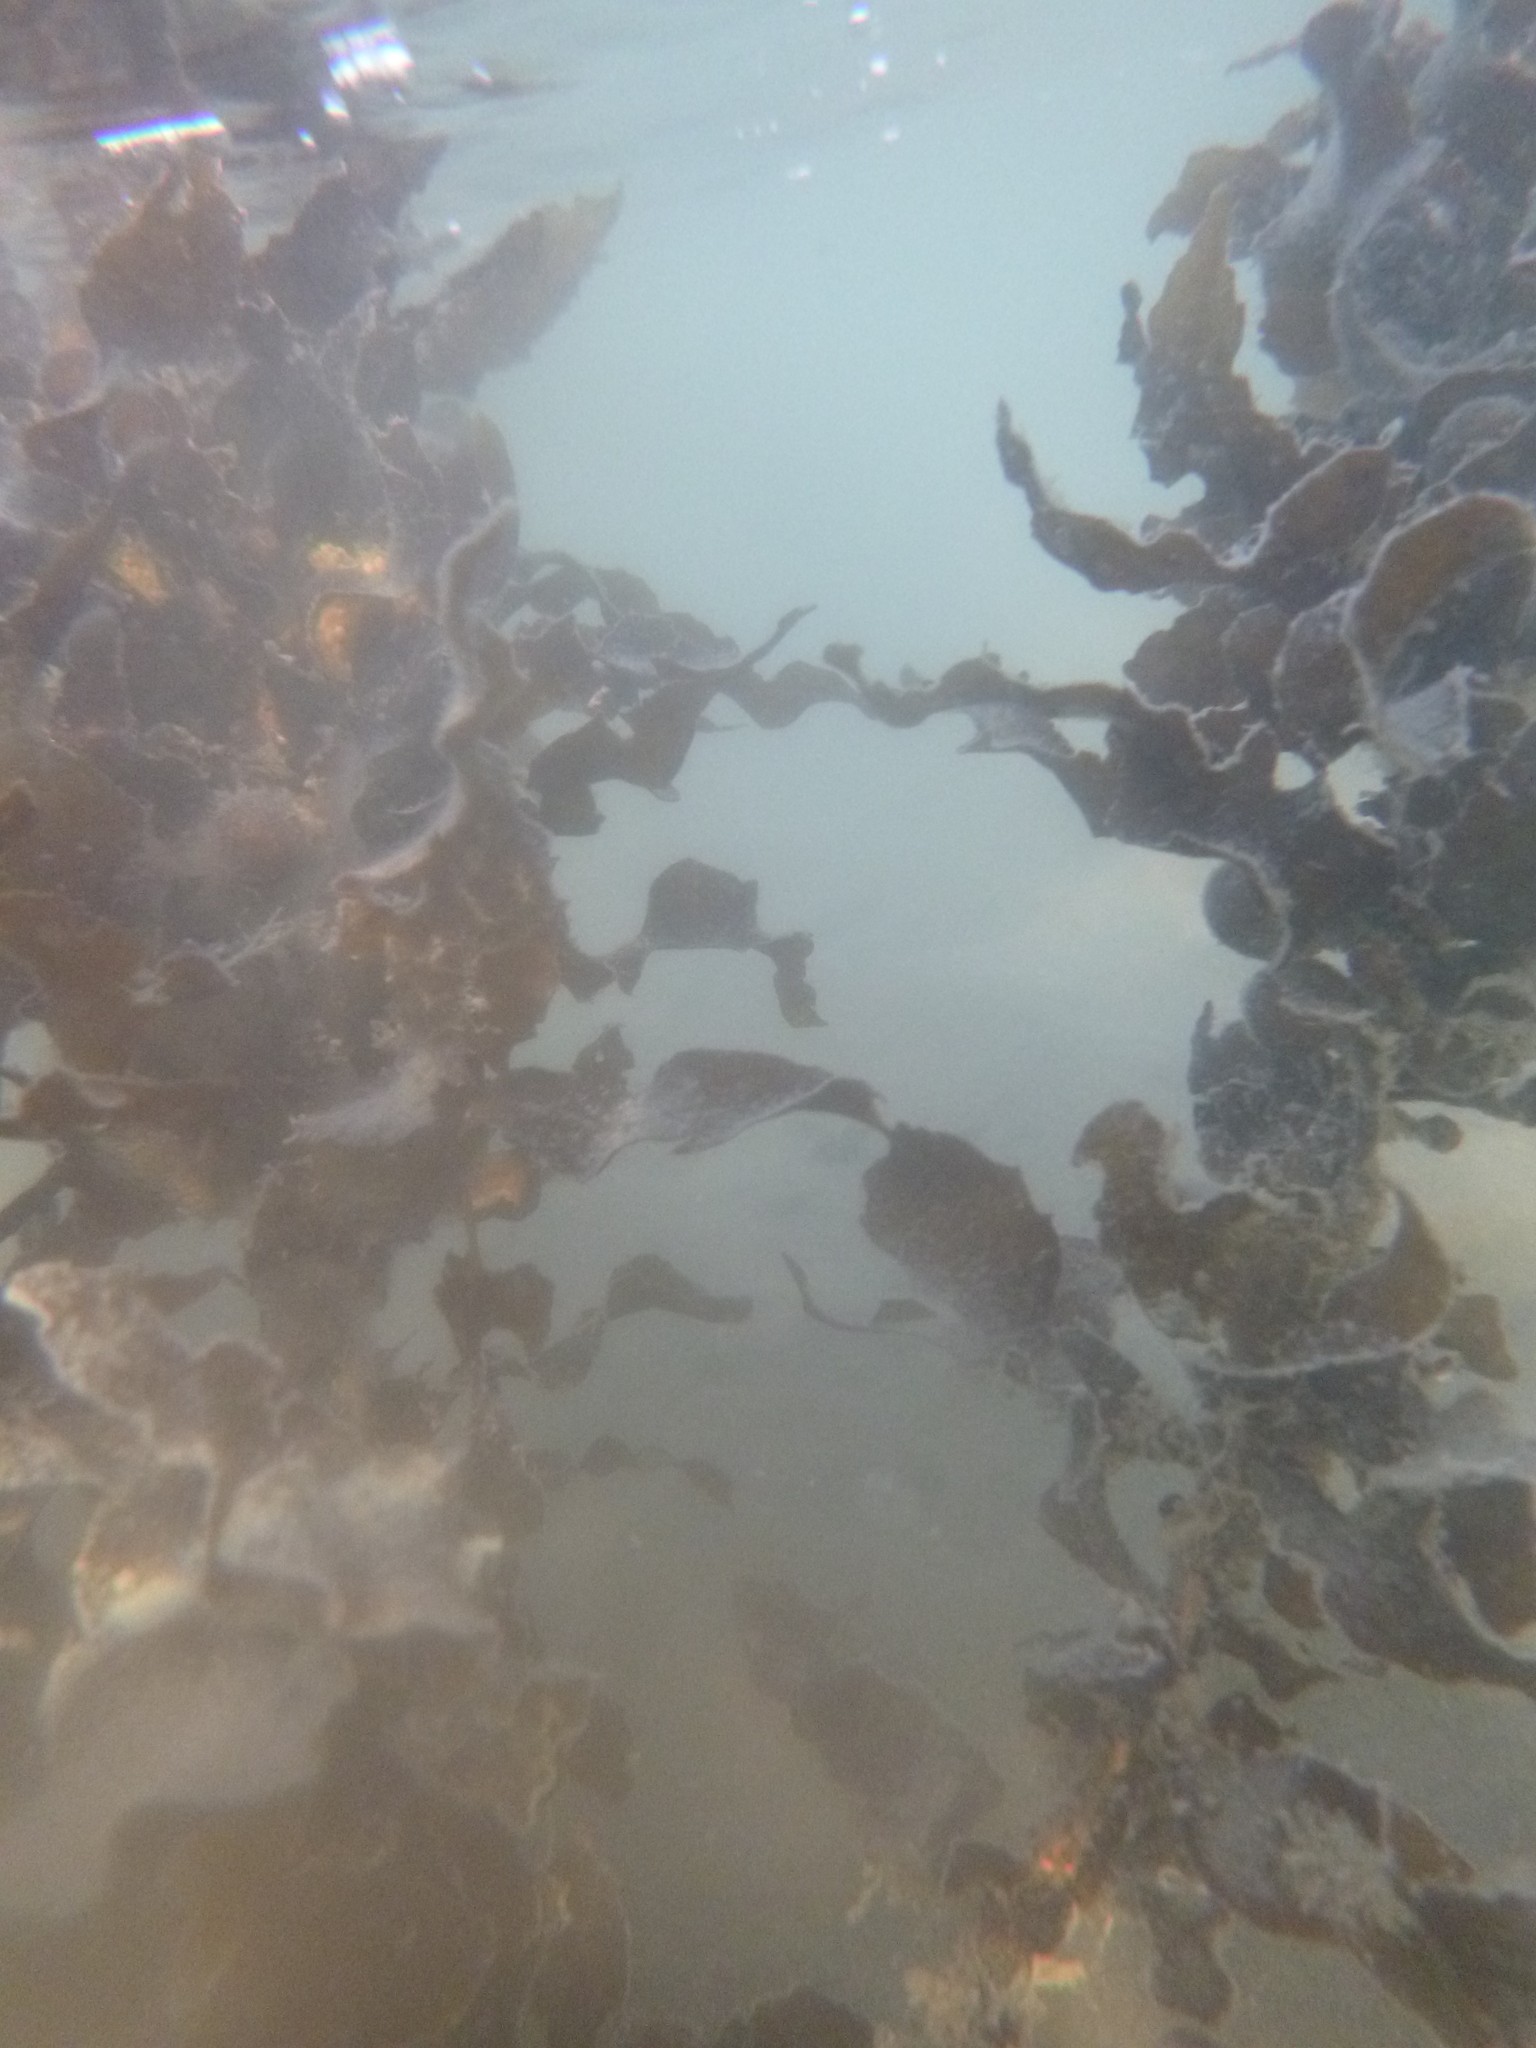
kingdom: Chromista
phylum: Ochrophyta
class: Phaeophyceae
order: Fucales
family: Sargassaceae
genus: Carpophyllum
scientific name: Carpophyllum flexuosum
